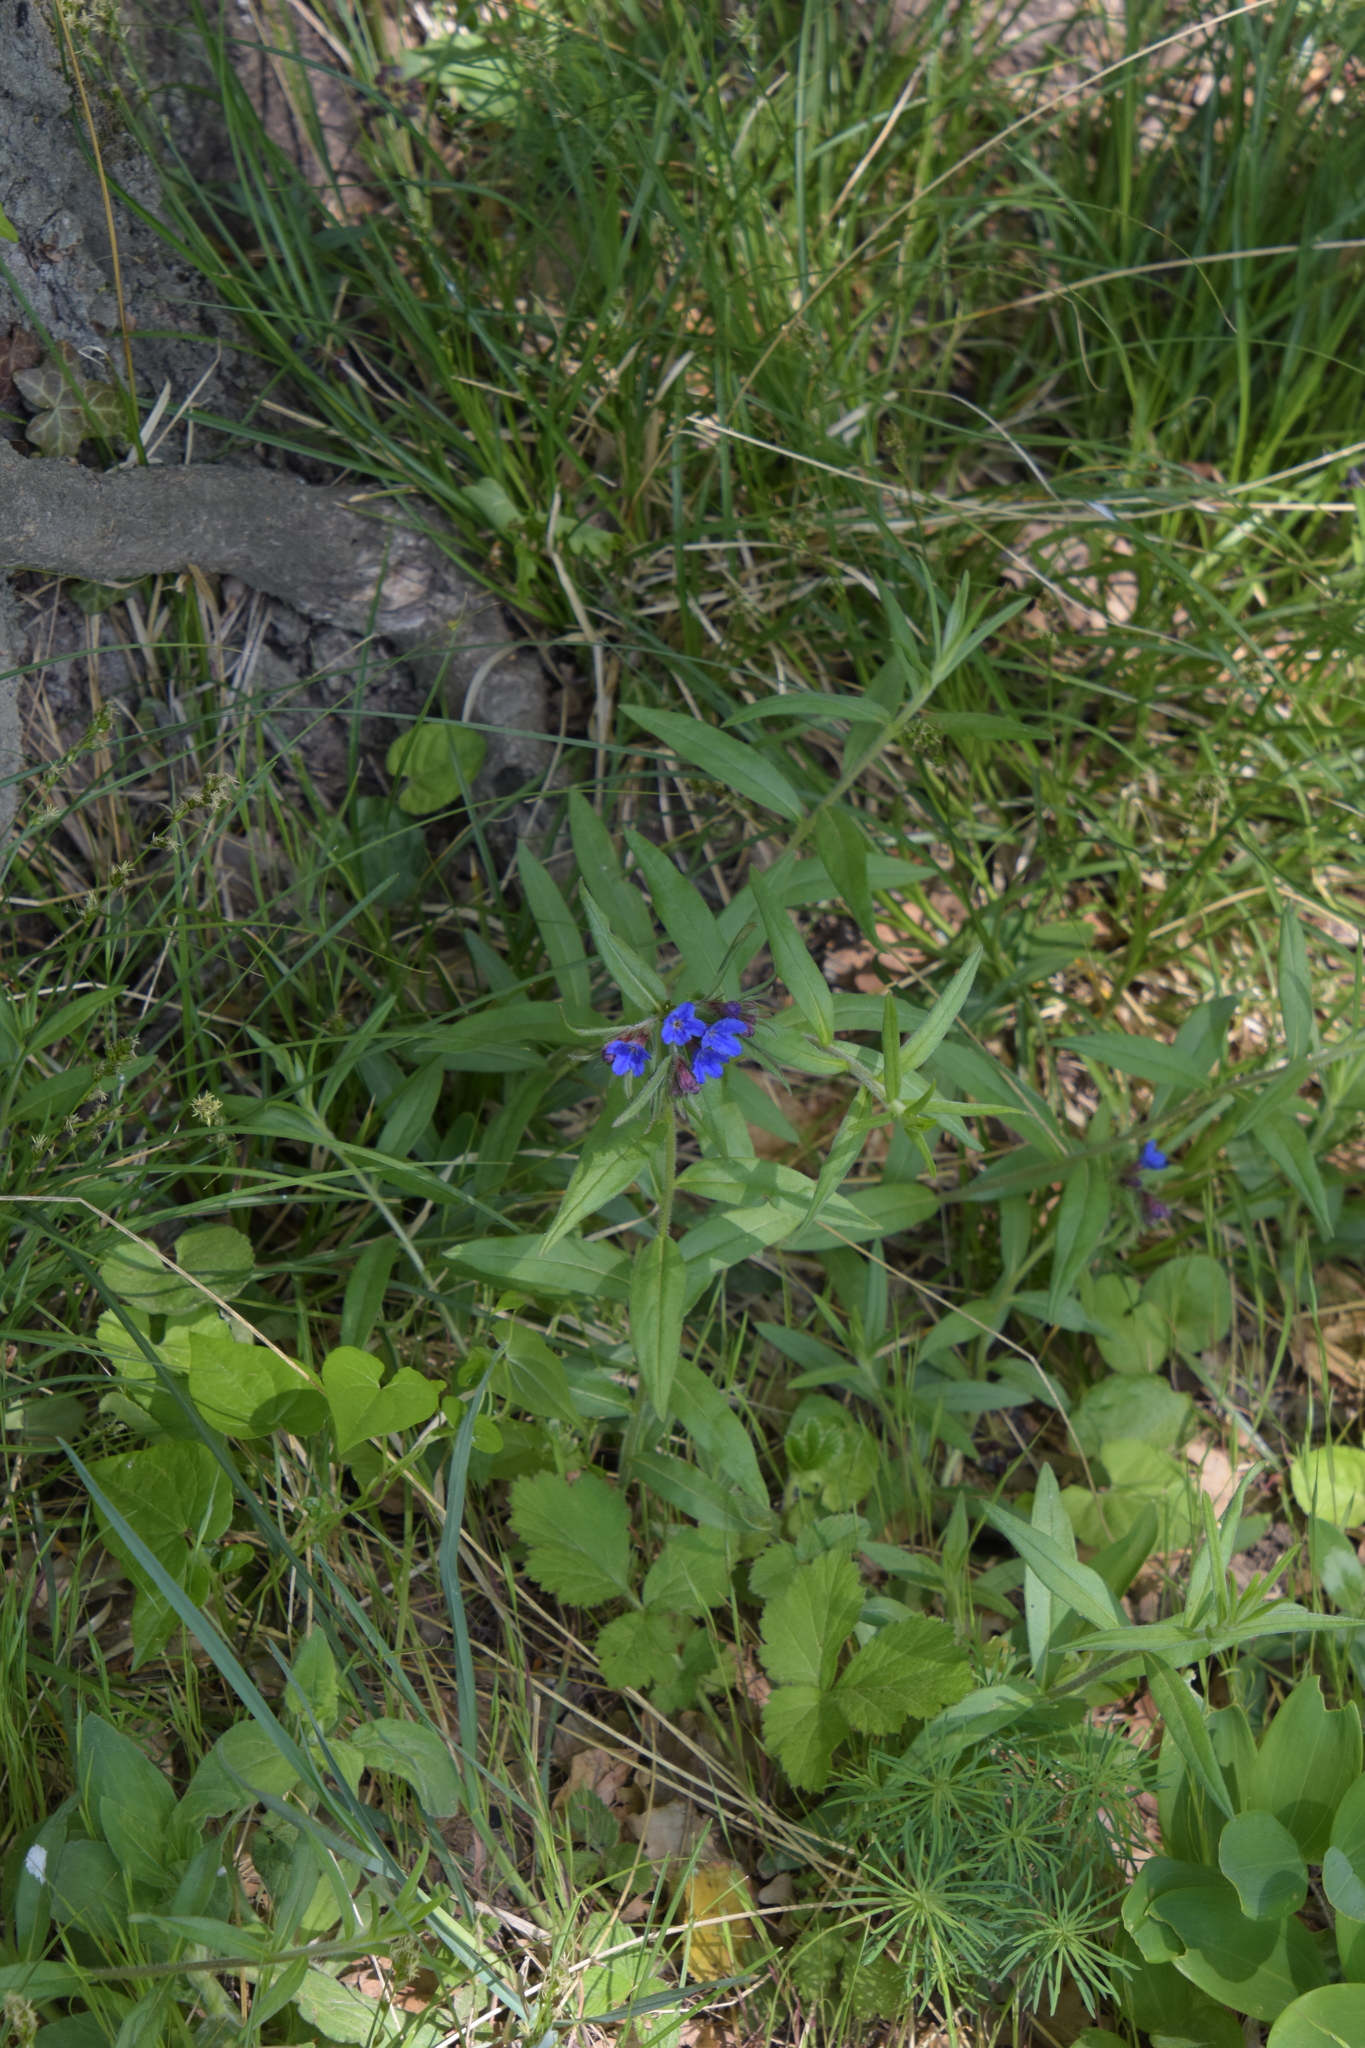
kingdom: Plantae
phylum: Tracheophyta
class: Magnoliopsida
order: Boraginales
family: Boraginaceae
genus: Aegonychon
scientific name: Aegonychon purpurocaeruleum
